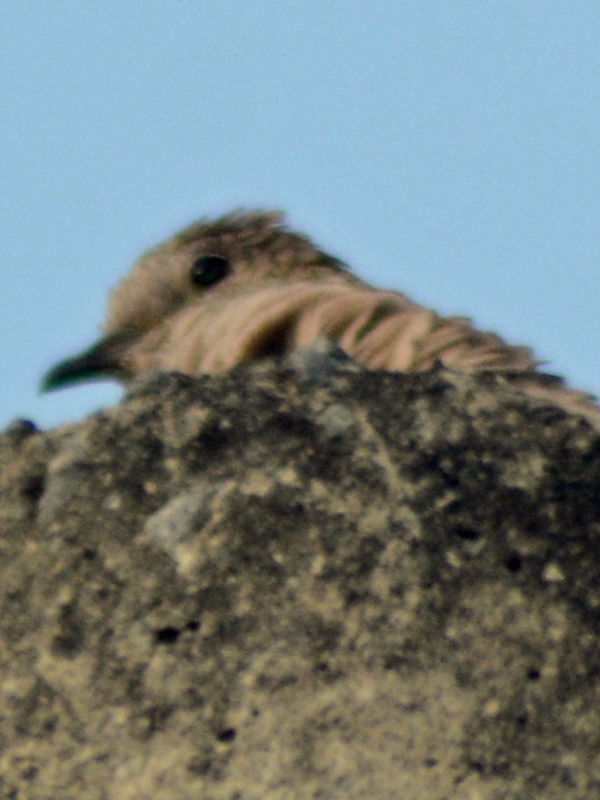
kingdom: Animalia
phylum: Chordata
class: Aves
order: Columbiformes
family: Columbidae
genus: Columbina
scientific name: Columbina inca
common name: Inca dove
